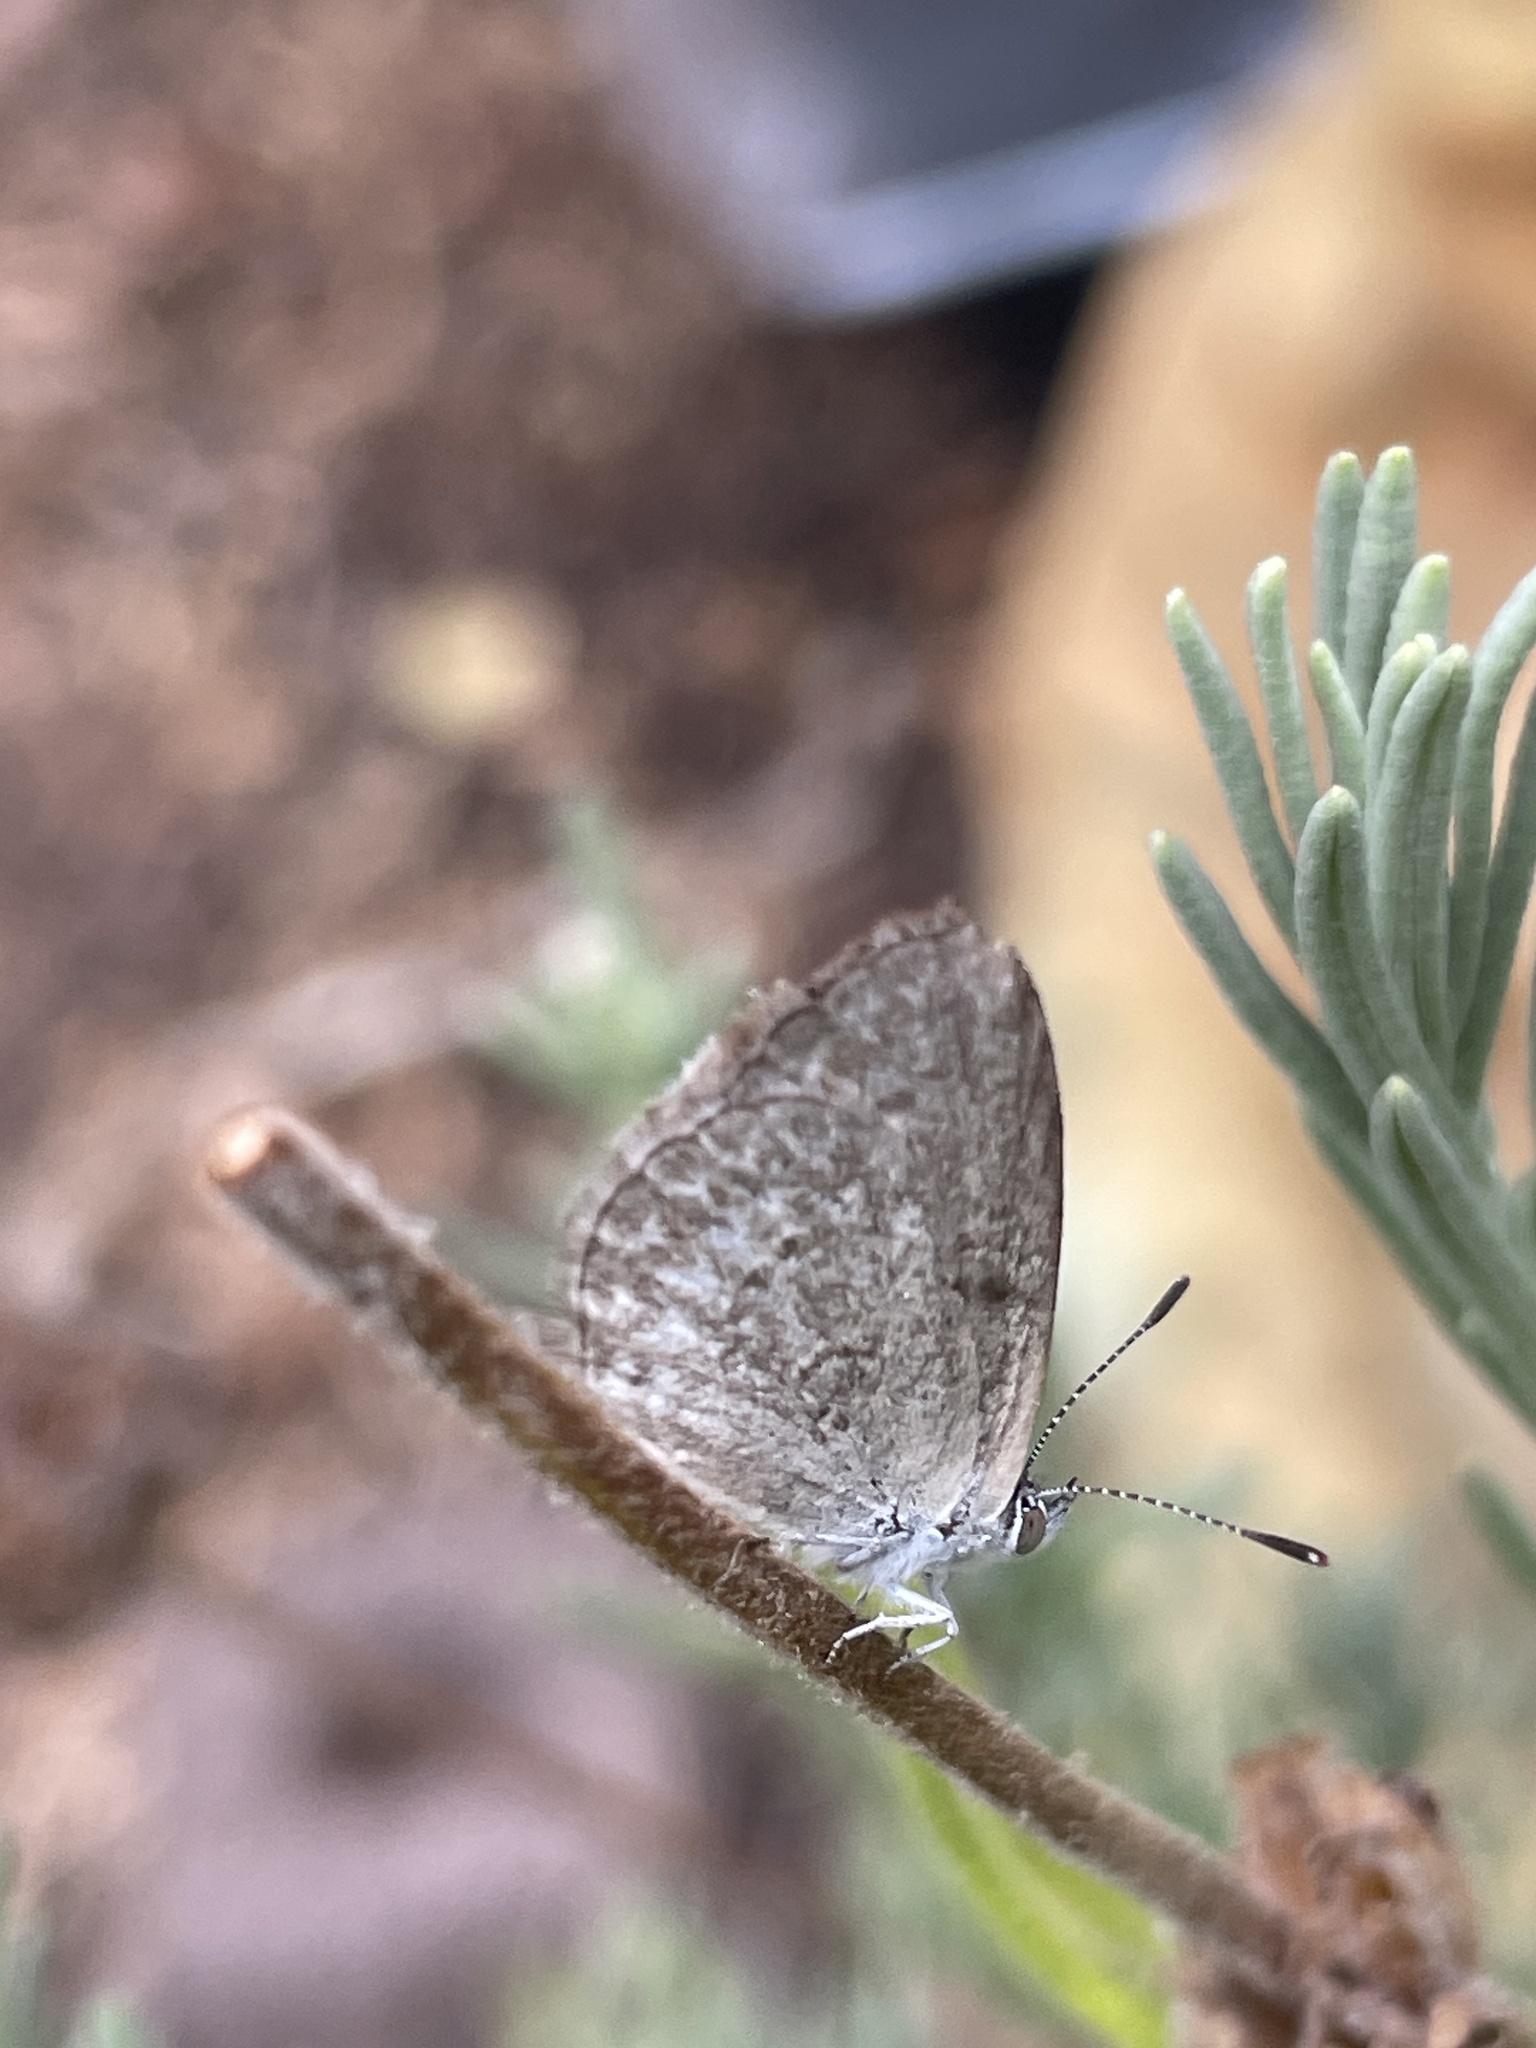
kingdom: Animalia
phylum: Arthropoda
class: Insecta
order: Lepidoptera
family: Lycaenidae
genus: Zizina
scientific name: Zizina labradus
